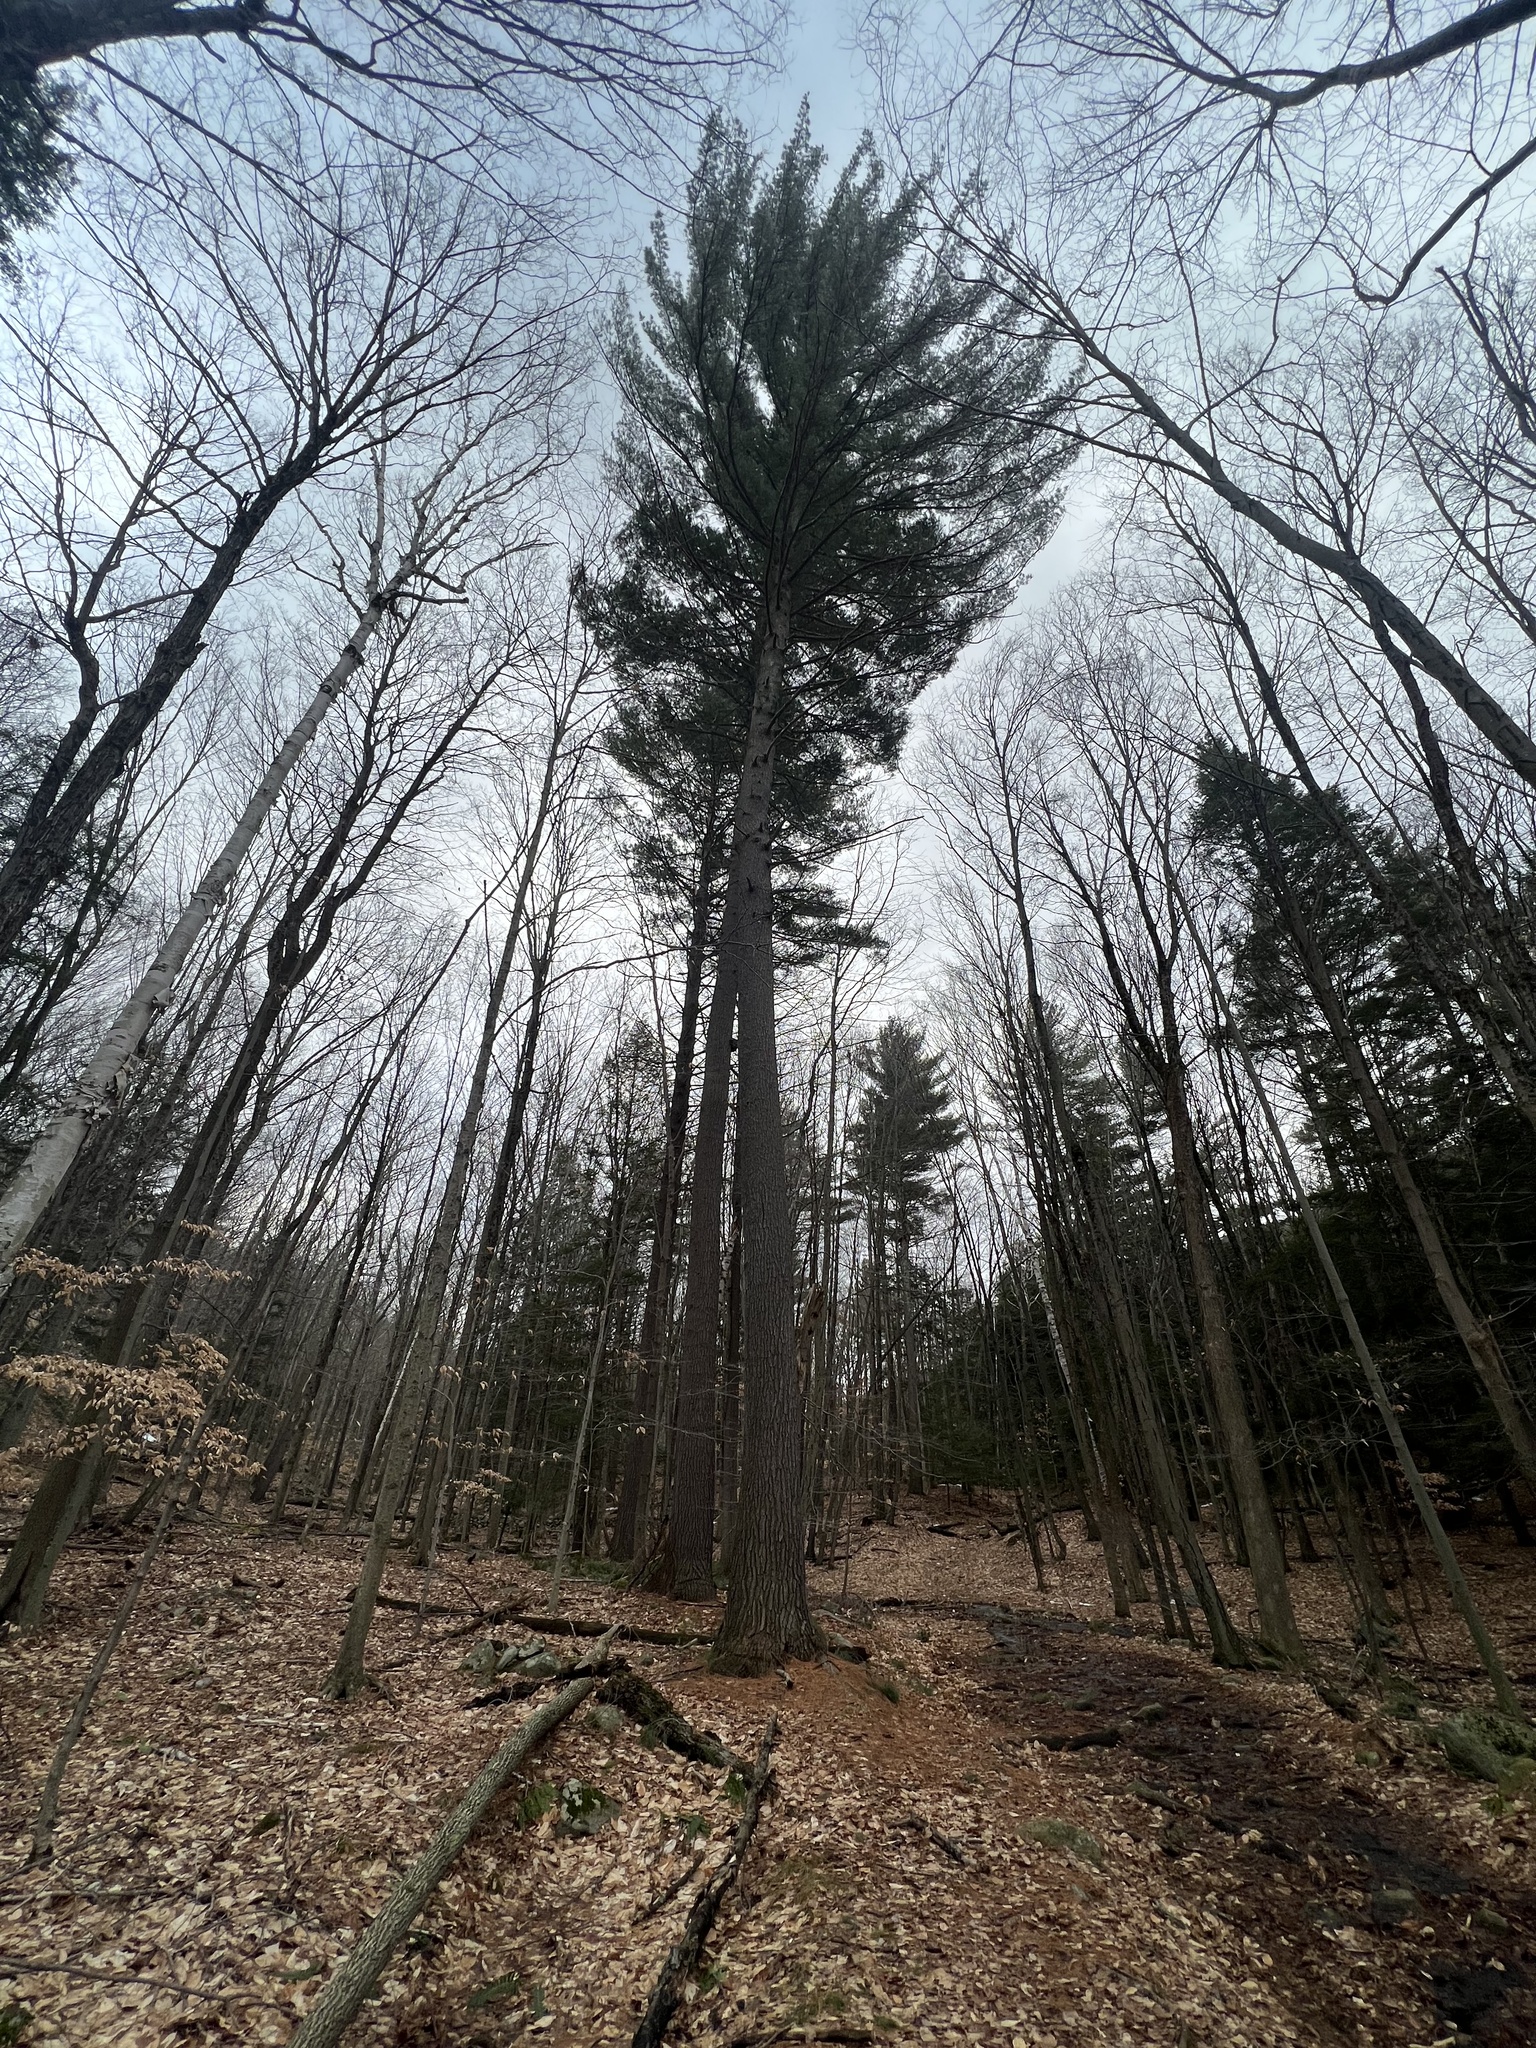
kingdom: Plantae
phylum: Tracheophyta
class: Pinopsida
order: Pinales
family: Pinaceae
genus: Pinus
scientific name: Pinus strobus
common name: Weymouth pine
